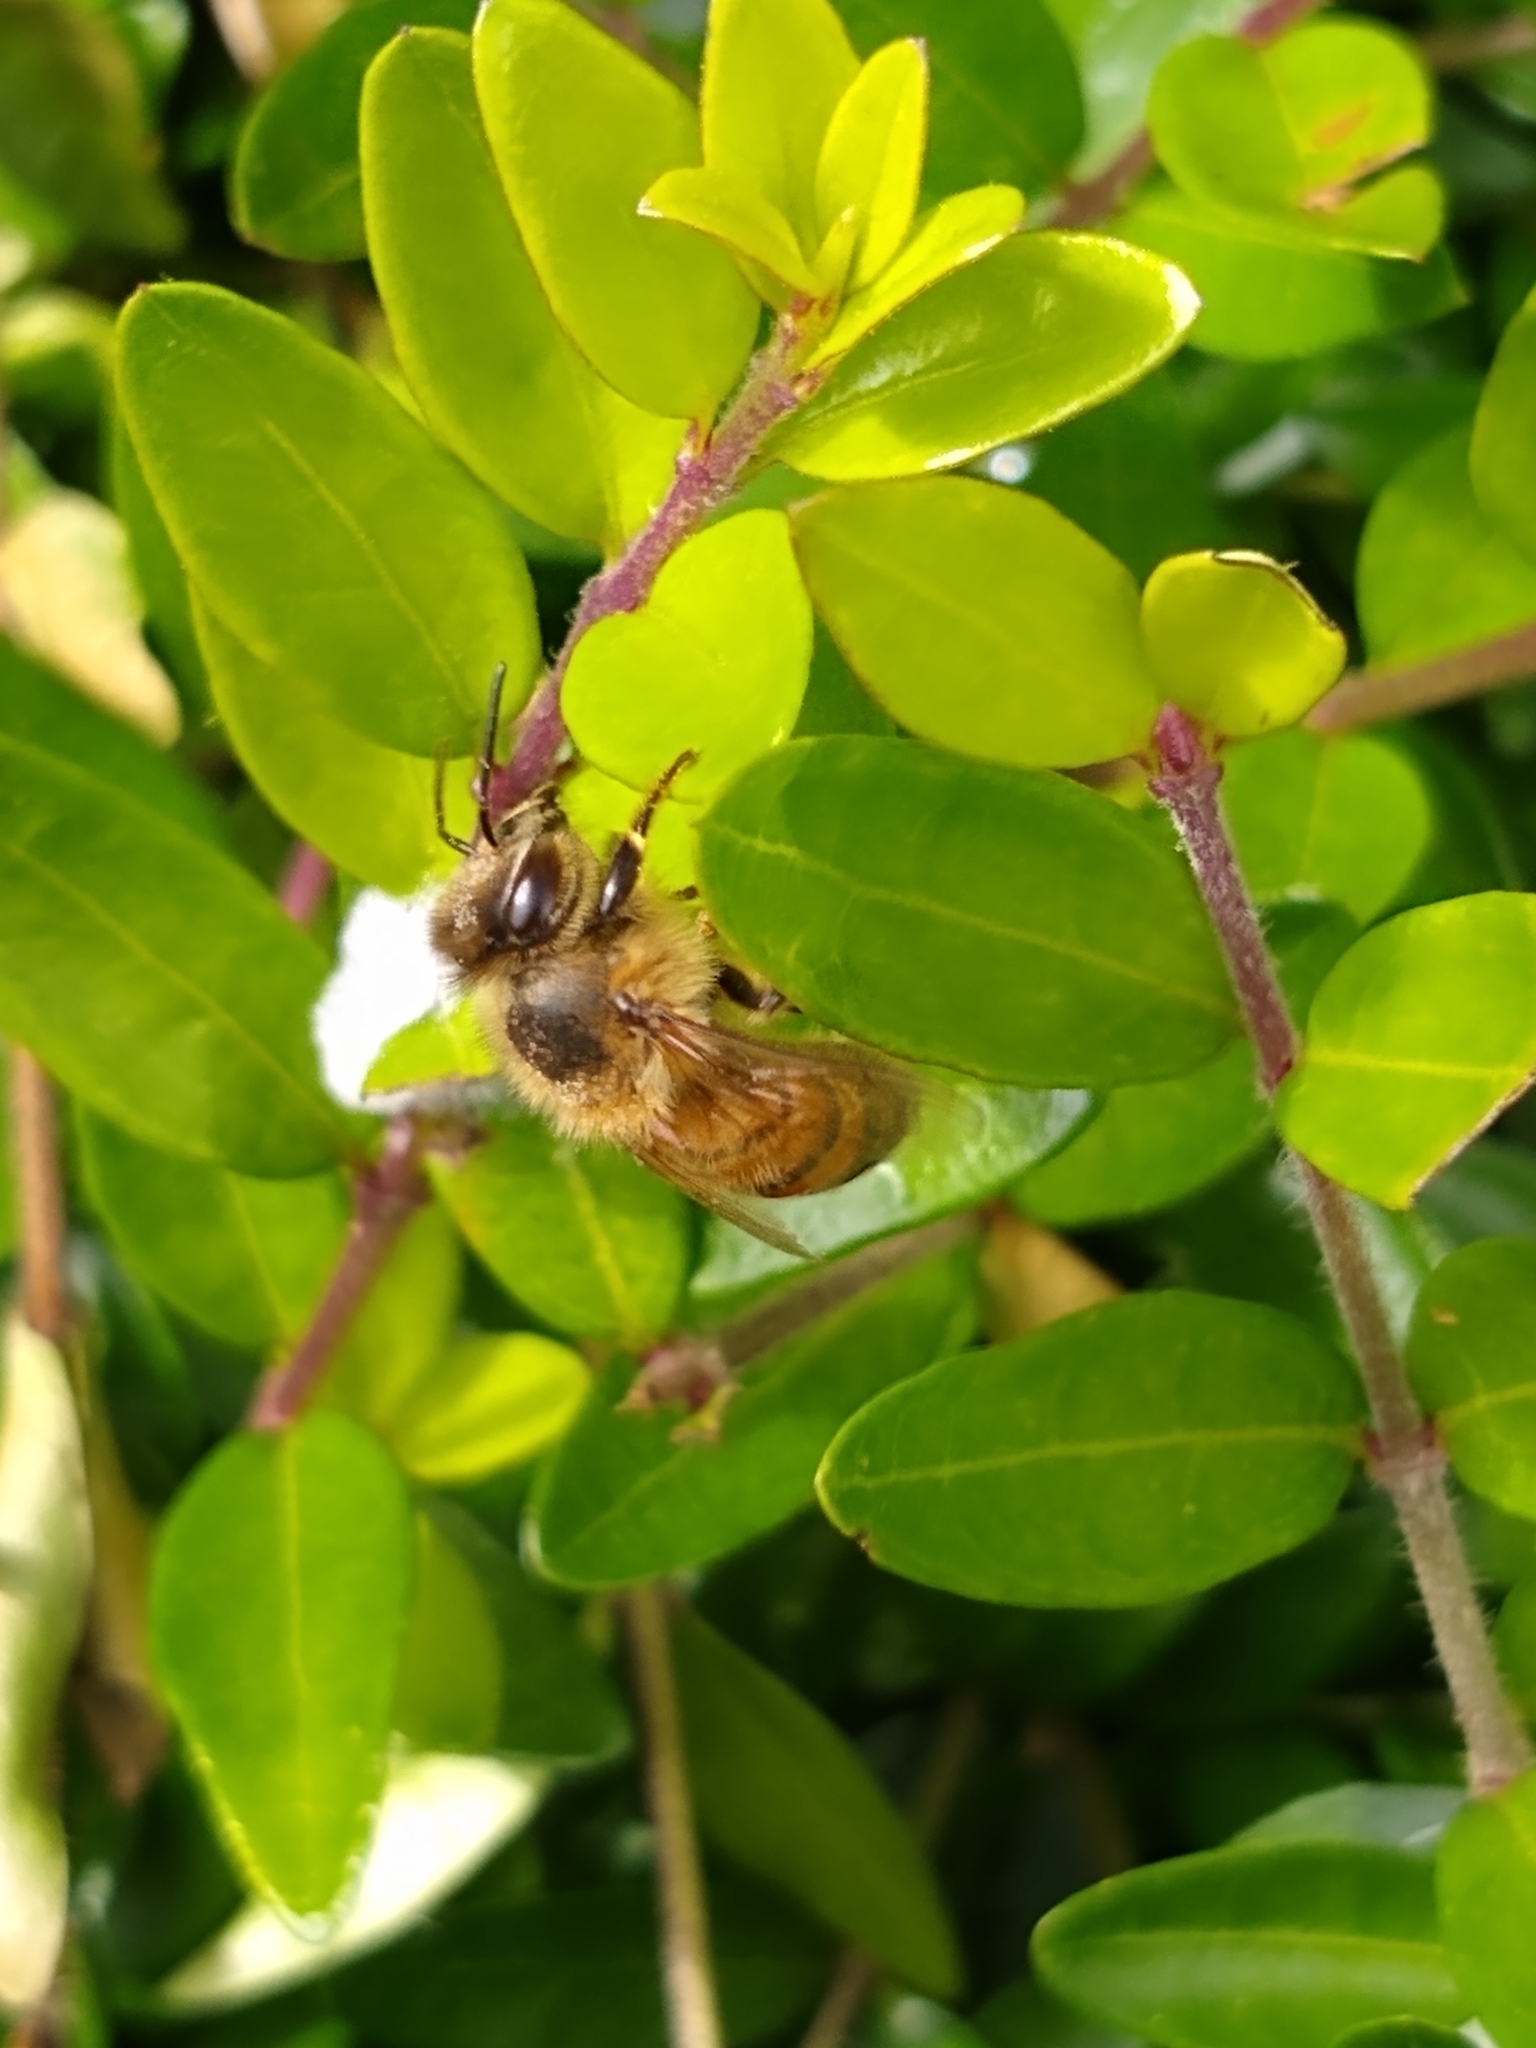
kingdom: Animalia
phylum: Arthropoda
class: Insecta
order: Hymenoptera
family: Apidae
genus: Apis
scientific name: Apis mellifera
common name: Honey bee
